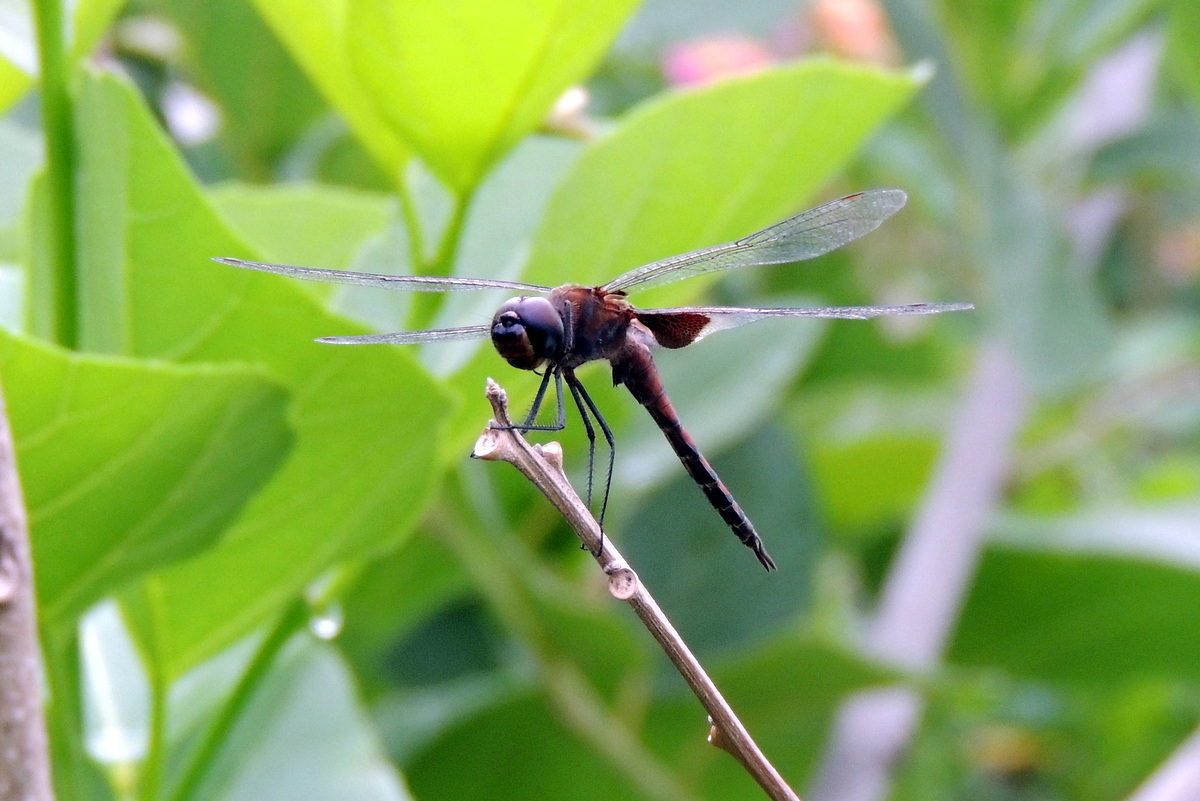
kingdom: Animalia
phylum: Arthropoda
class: Insecta
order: Odonata
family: Libellulidae
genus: Tramea
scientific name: Tramea limbata
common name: Ferruginous glider
